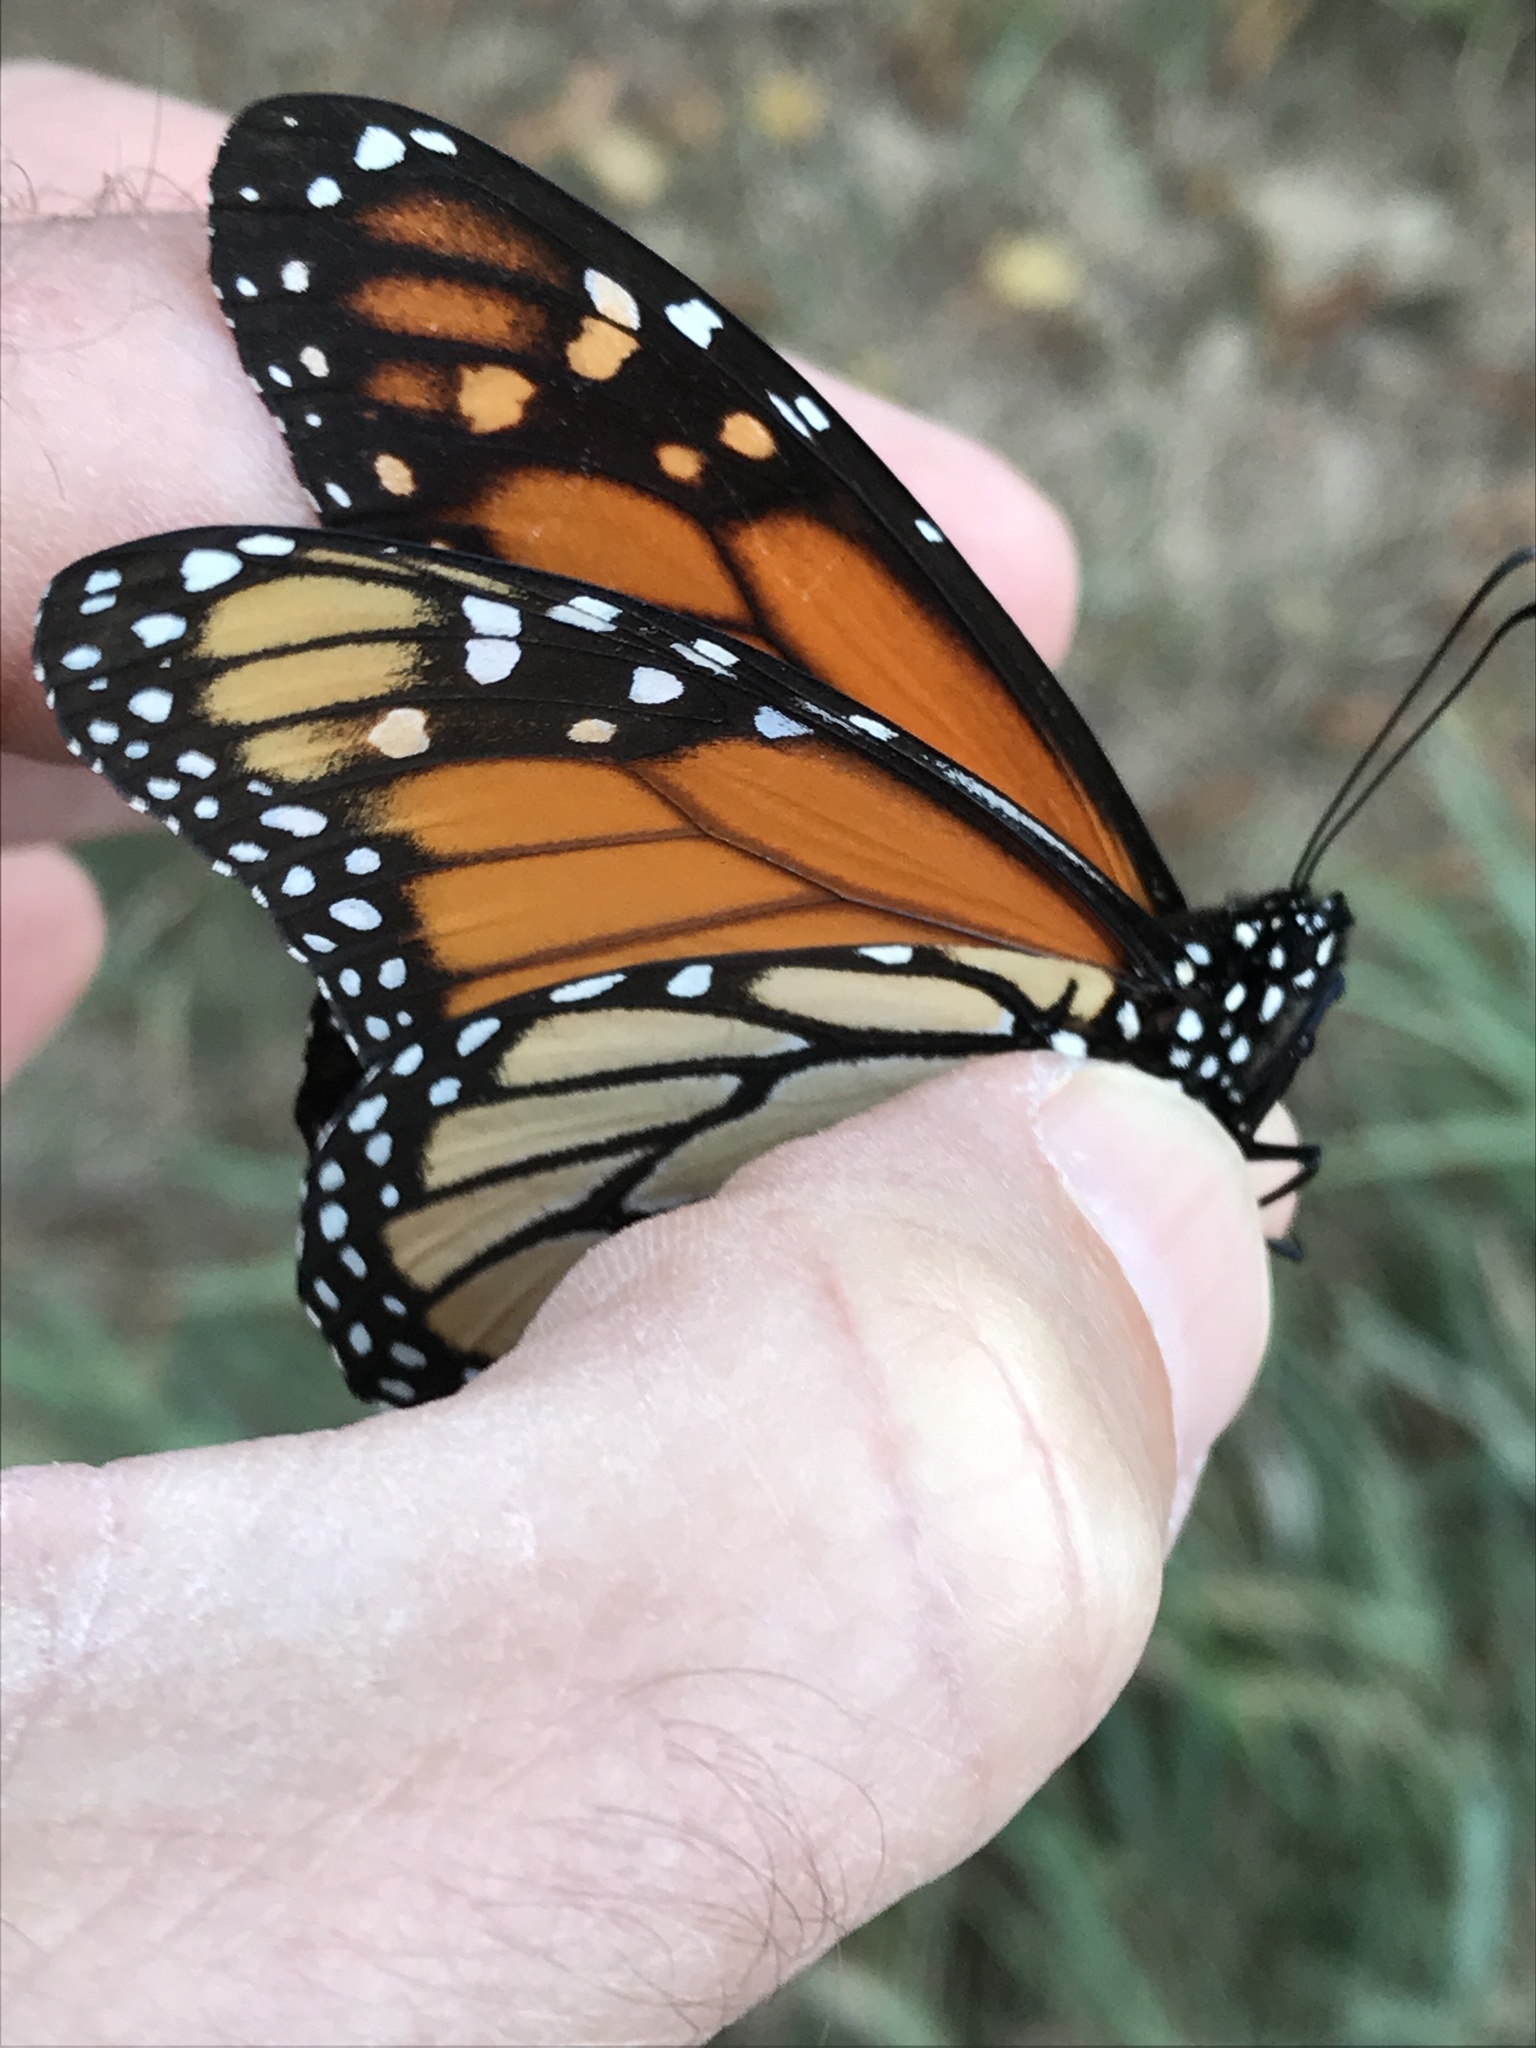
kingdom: Animalia
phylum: Arthropoda
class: Insecta
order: Lepidoptera
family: Nymphalidae
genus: Danaus
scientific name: Danaus plexippus
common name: Monarch
